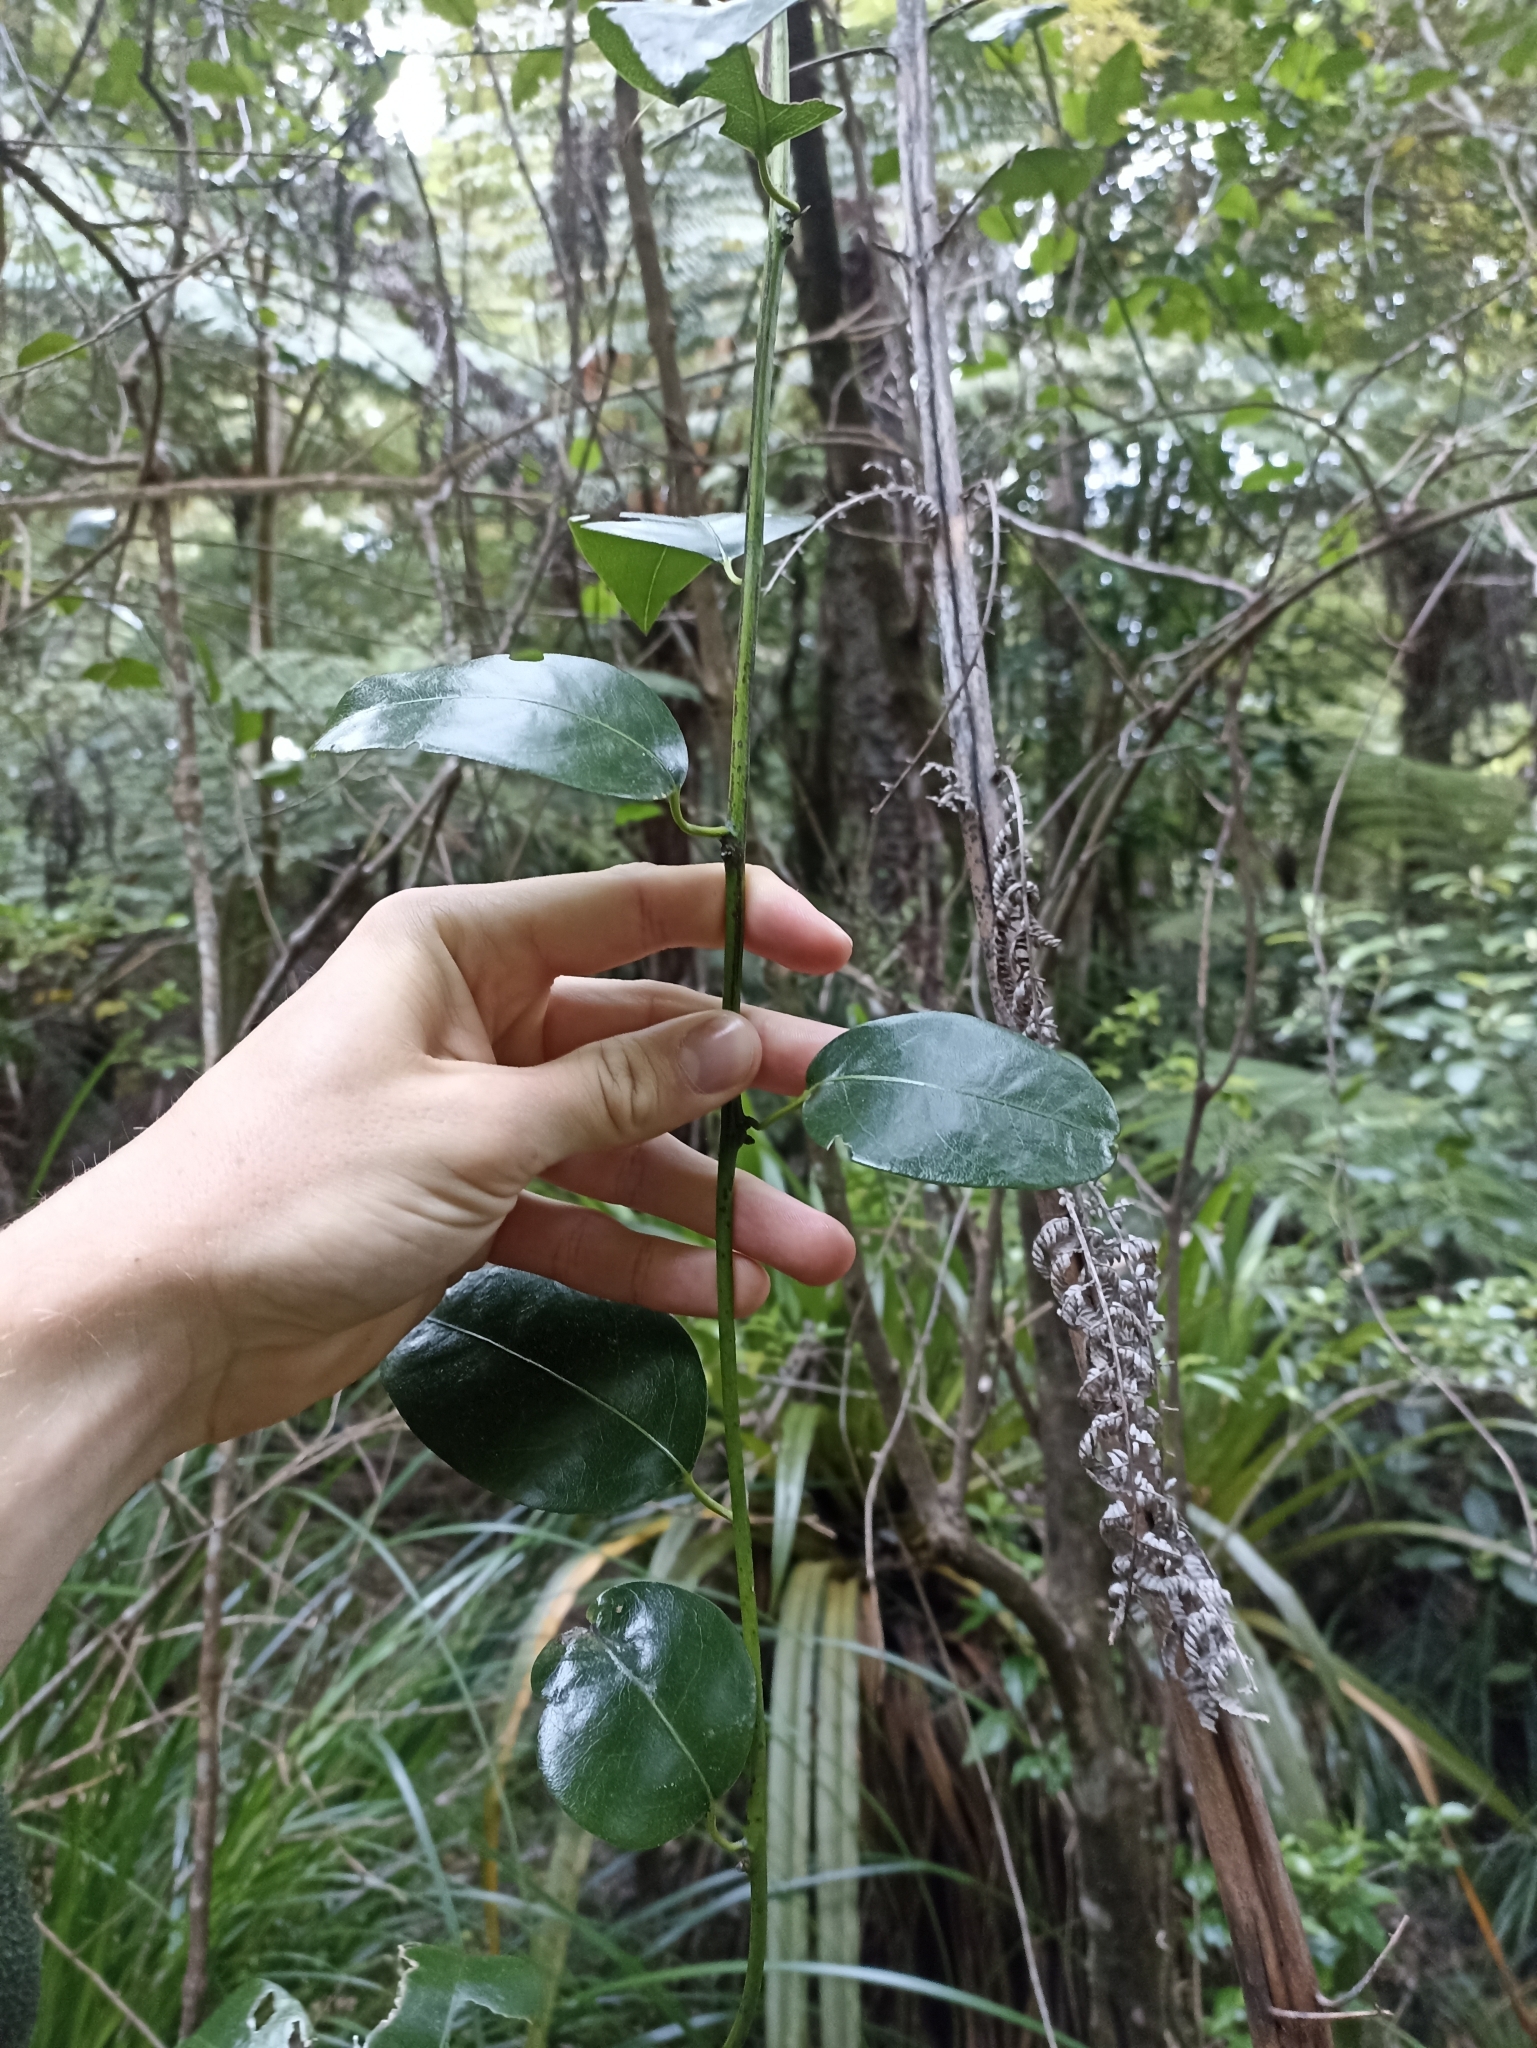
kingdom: Plantae
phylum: Tracheophyta
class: Magnoliopsida
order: Malpighiales
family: Passifloraceae
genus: Passiflora
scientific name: Passiflora tetrandra
